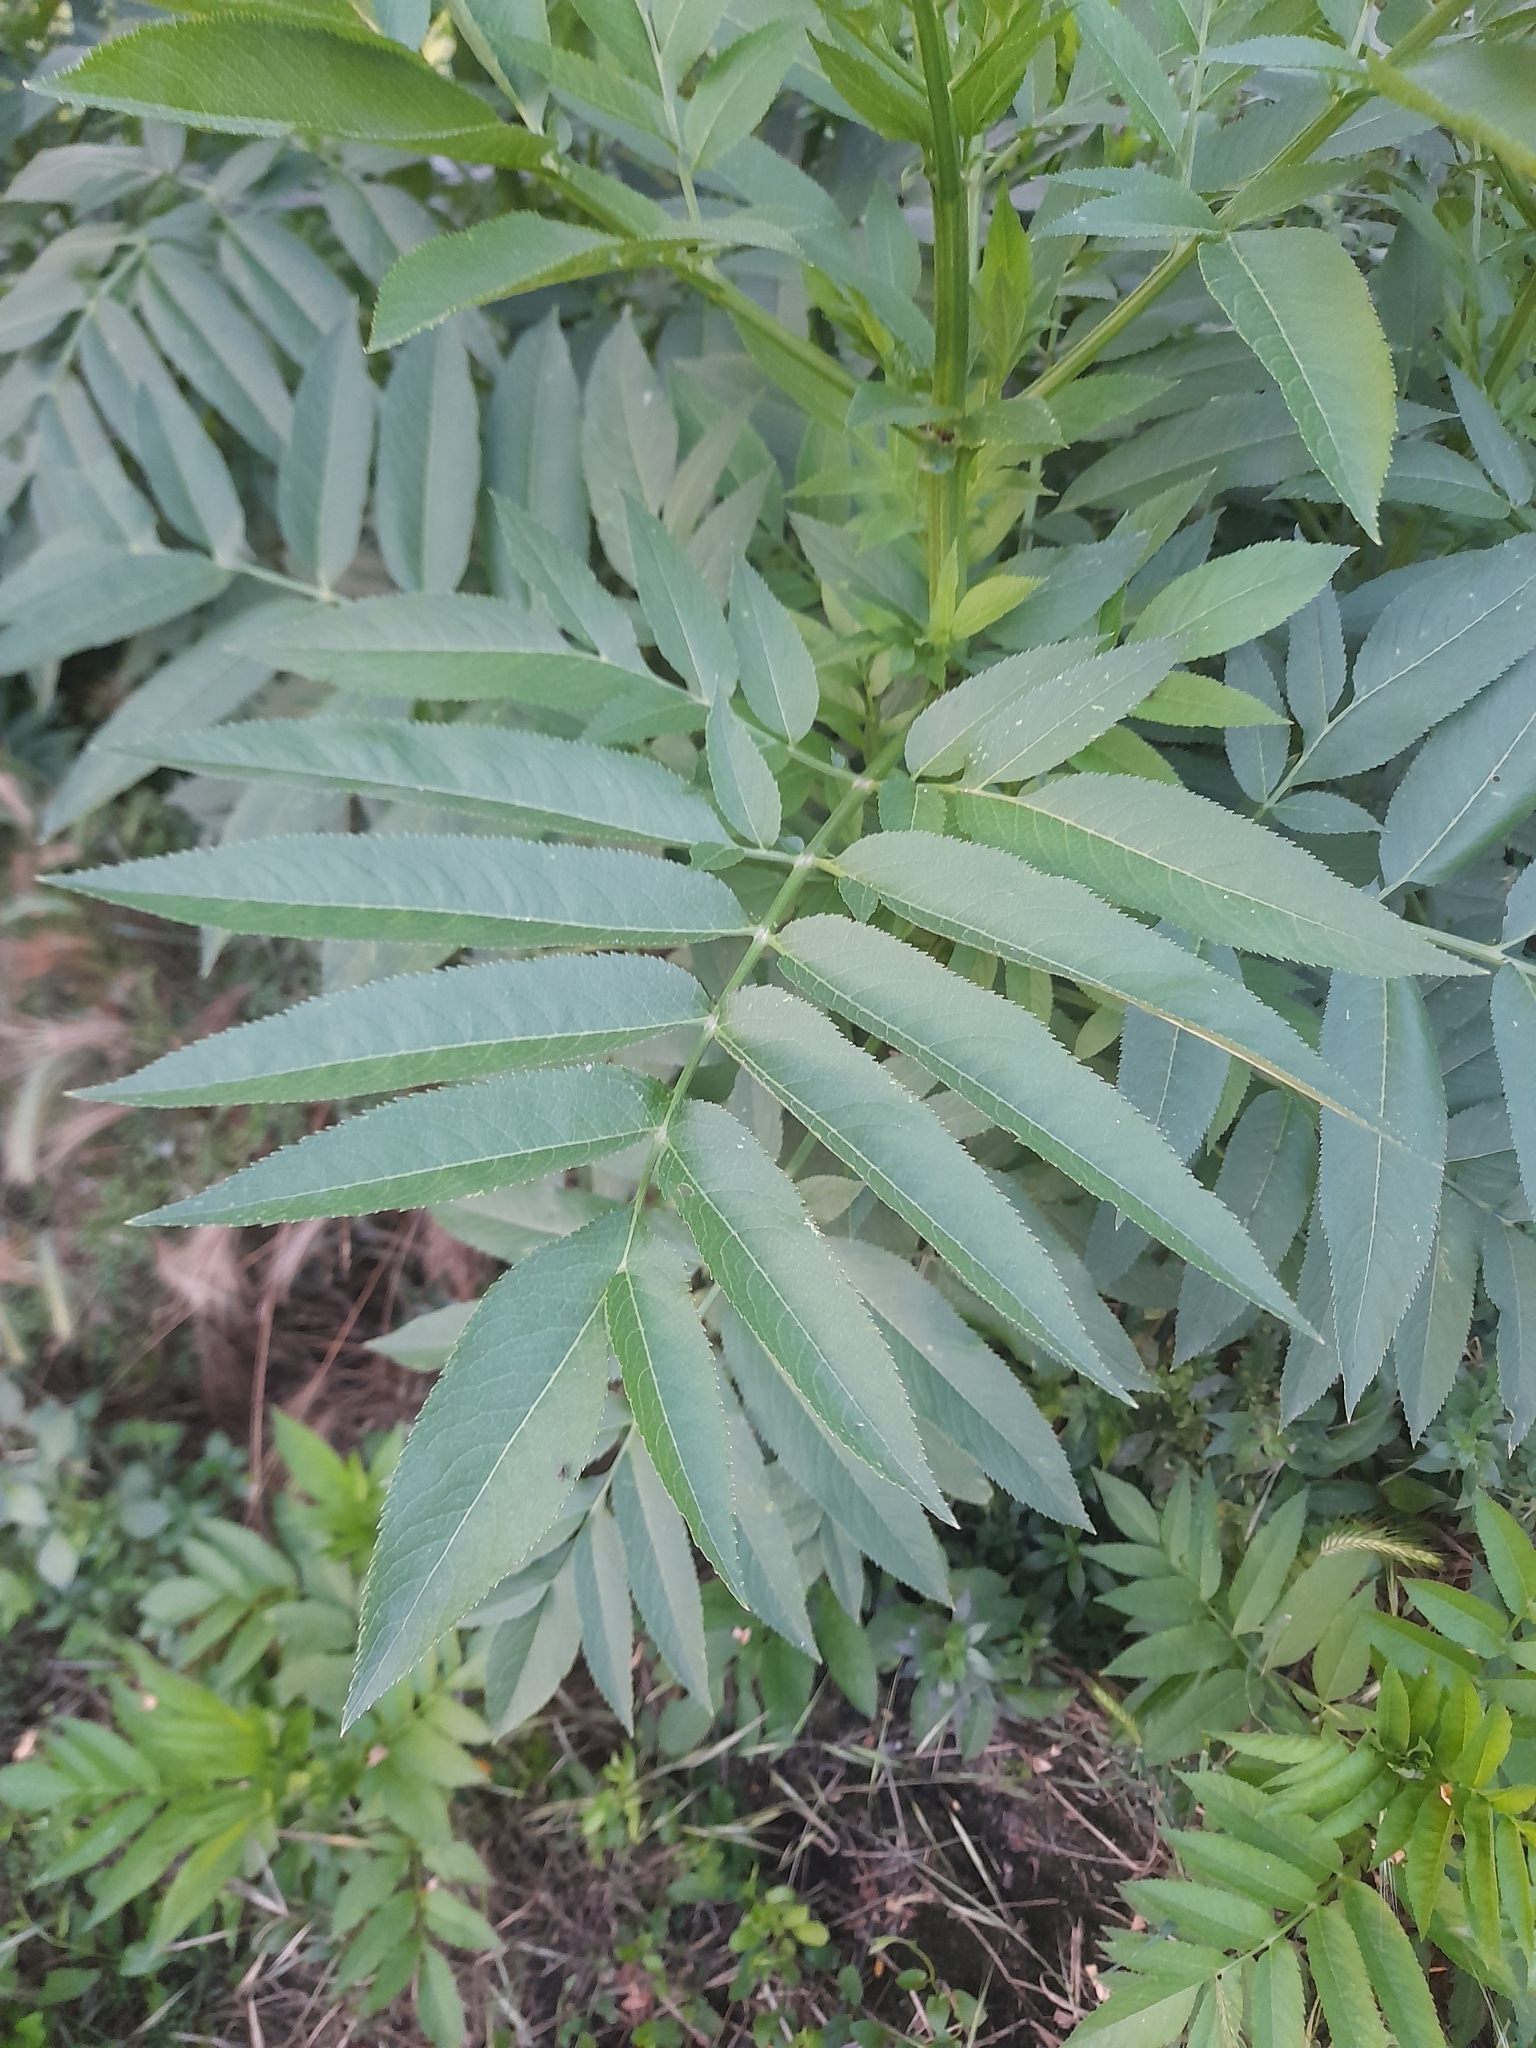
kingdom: Plantae
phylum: Tracheophyta
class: Magnoliopsida
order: Dipsacales
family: Viburnaceae
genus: Sambucus
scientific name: Sambucus ebulus
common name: Dwarf elder
